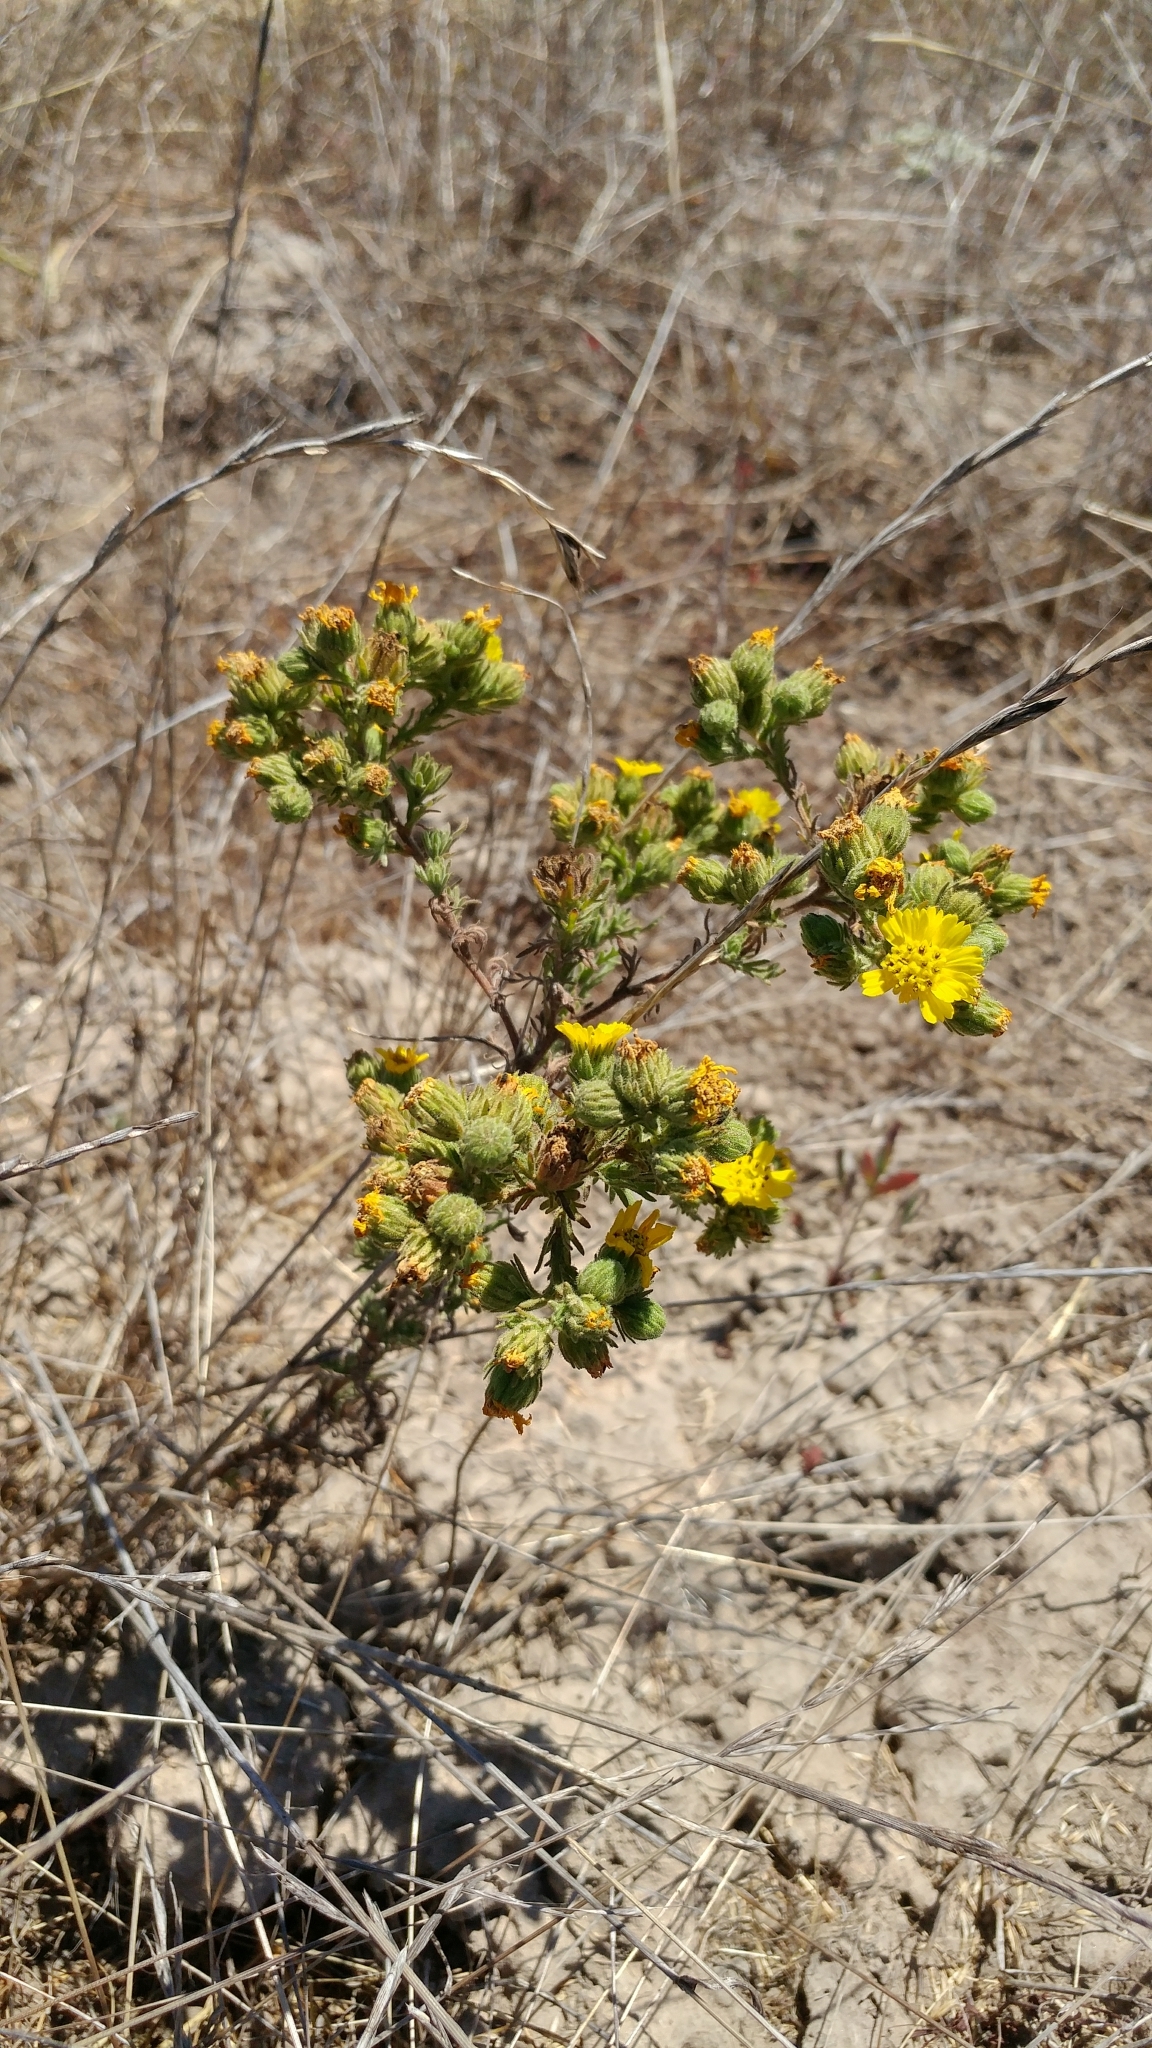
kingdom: Plantae
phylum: Tracheophyta
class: Magnoliopsida
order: Asterales
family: Asteraceae
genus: Deinandra
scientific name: Deinandra increscens
